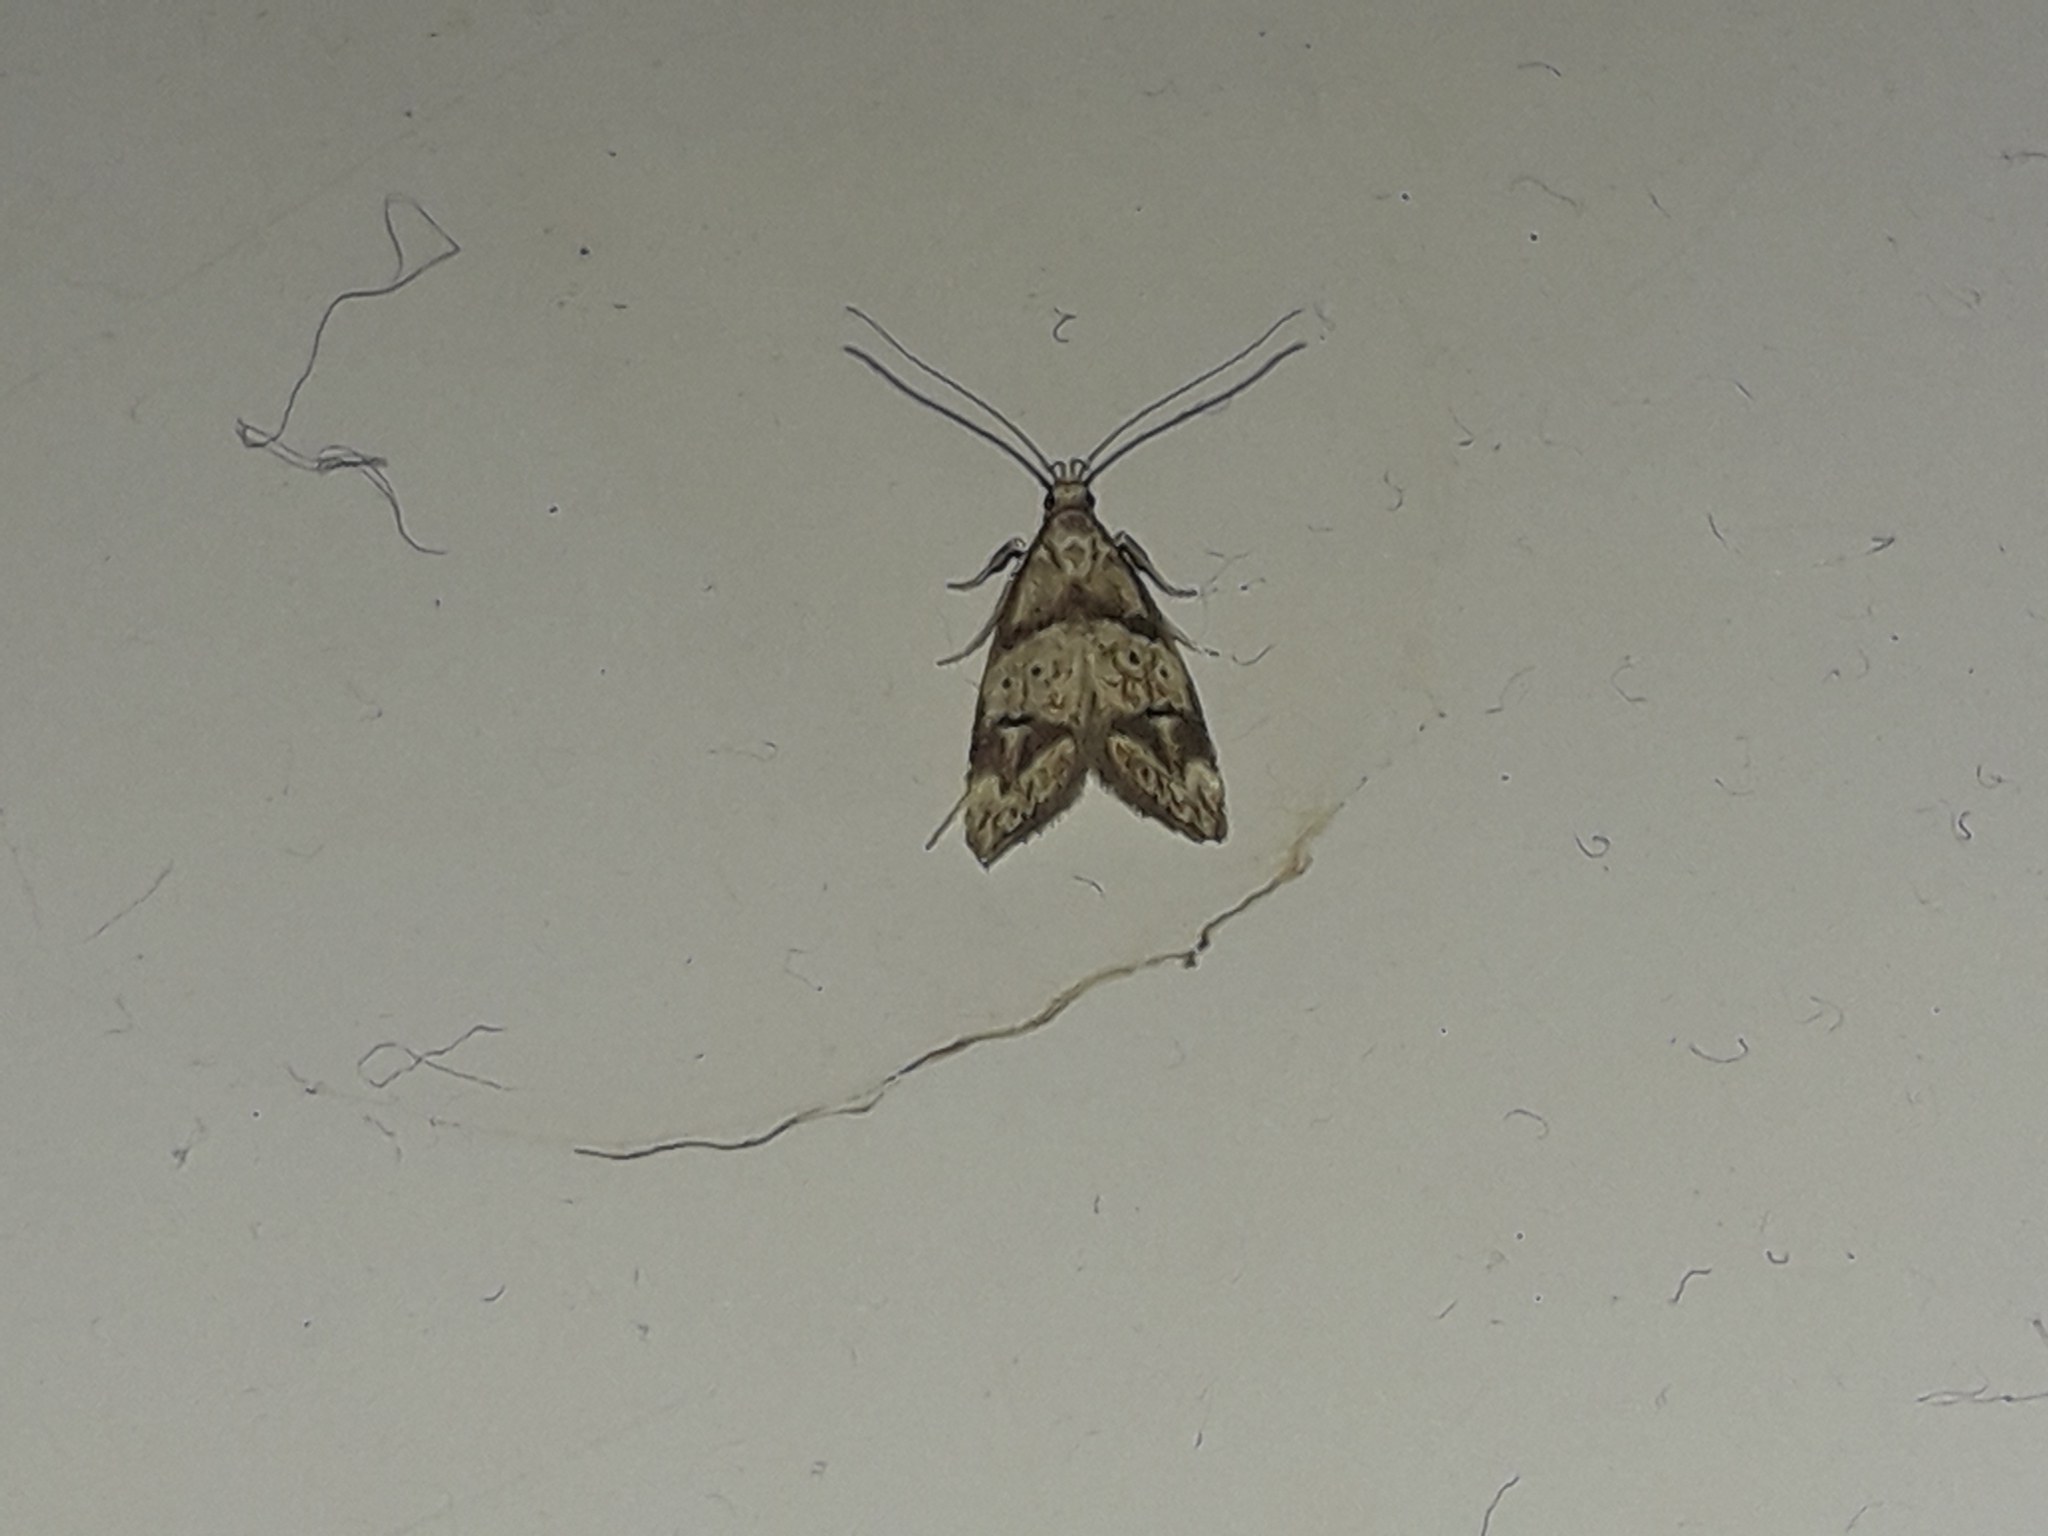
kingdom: Animalia
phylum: Arthropoda
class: Insecta
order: Lepidoptera
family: Oecophoridae
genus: Gymnobathra
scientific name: Gymnobathra hamatella
